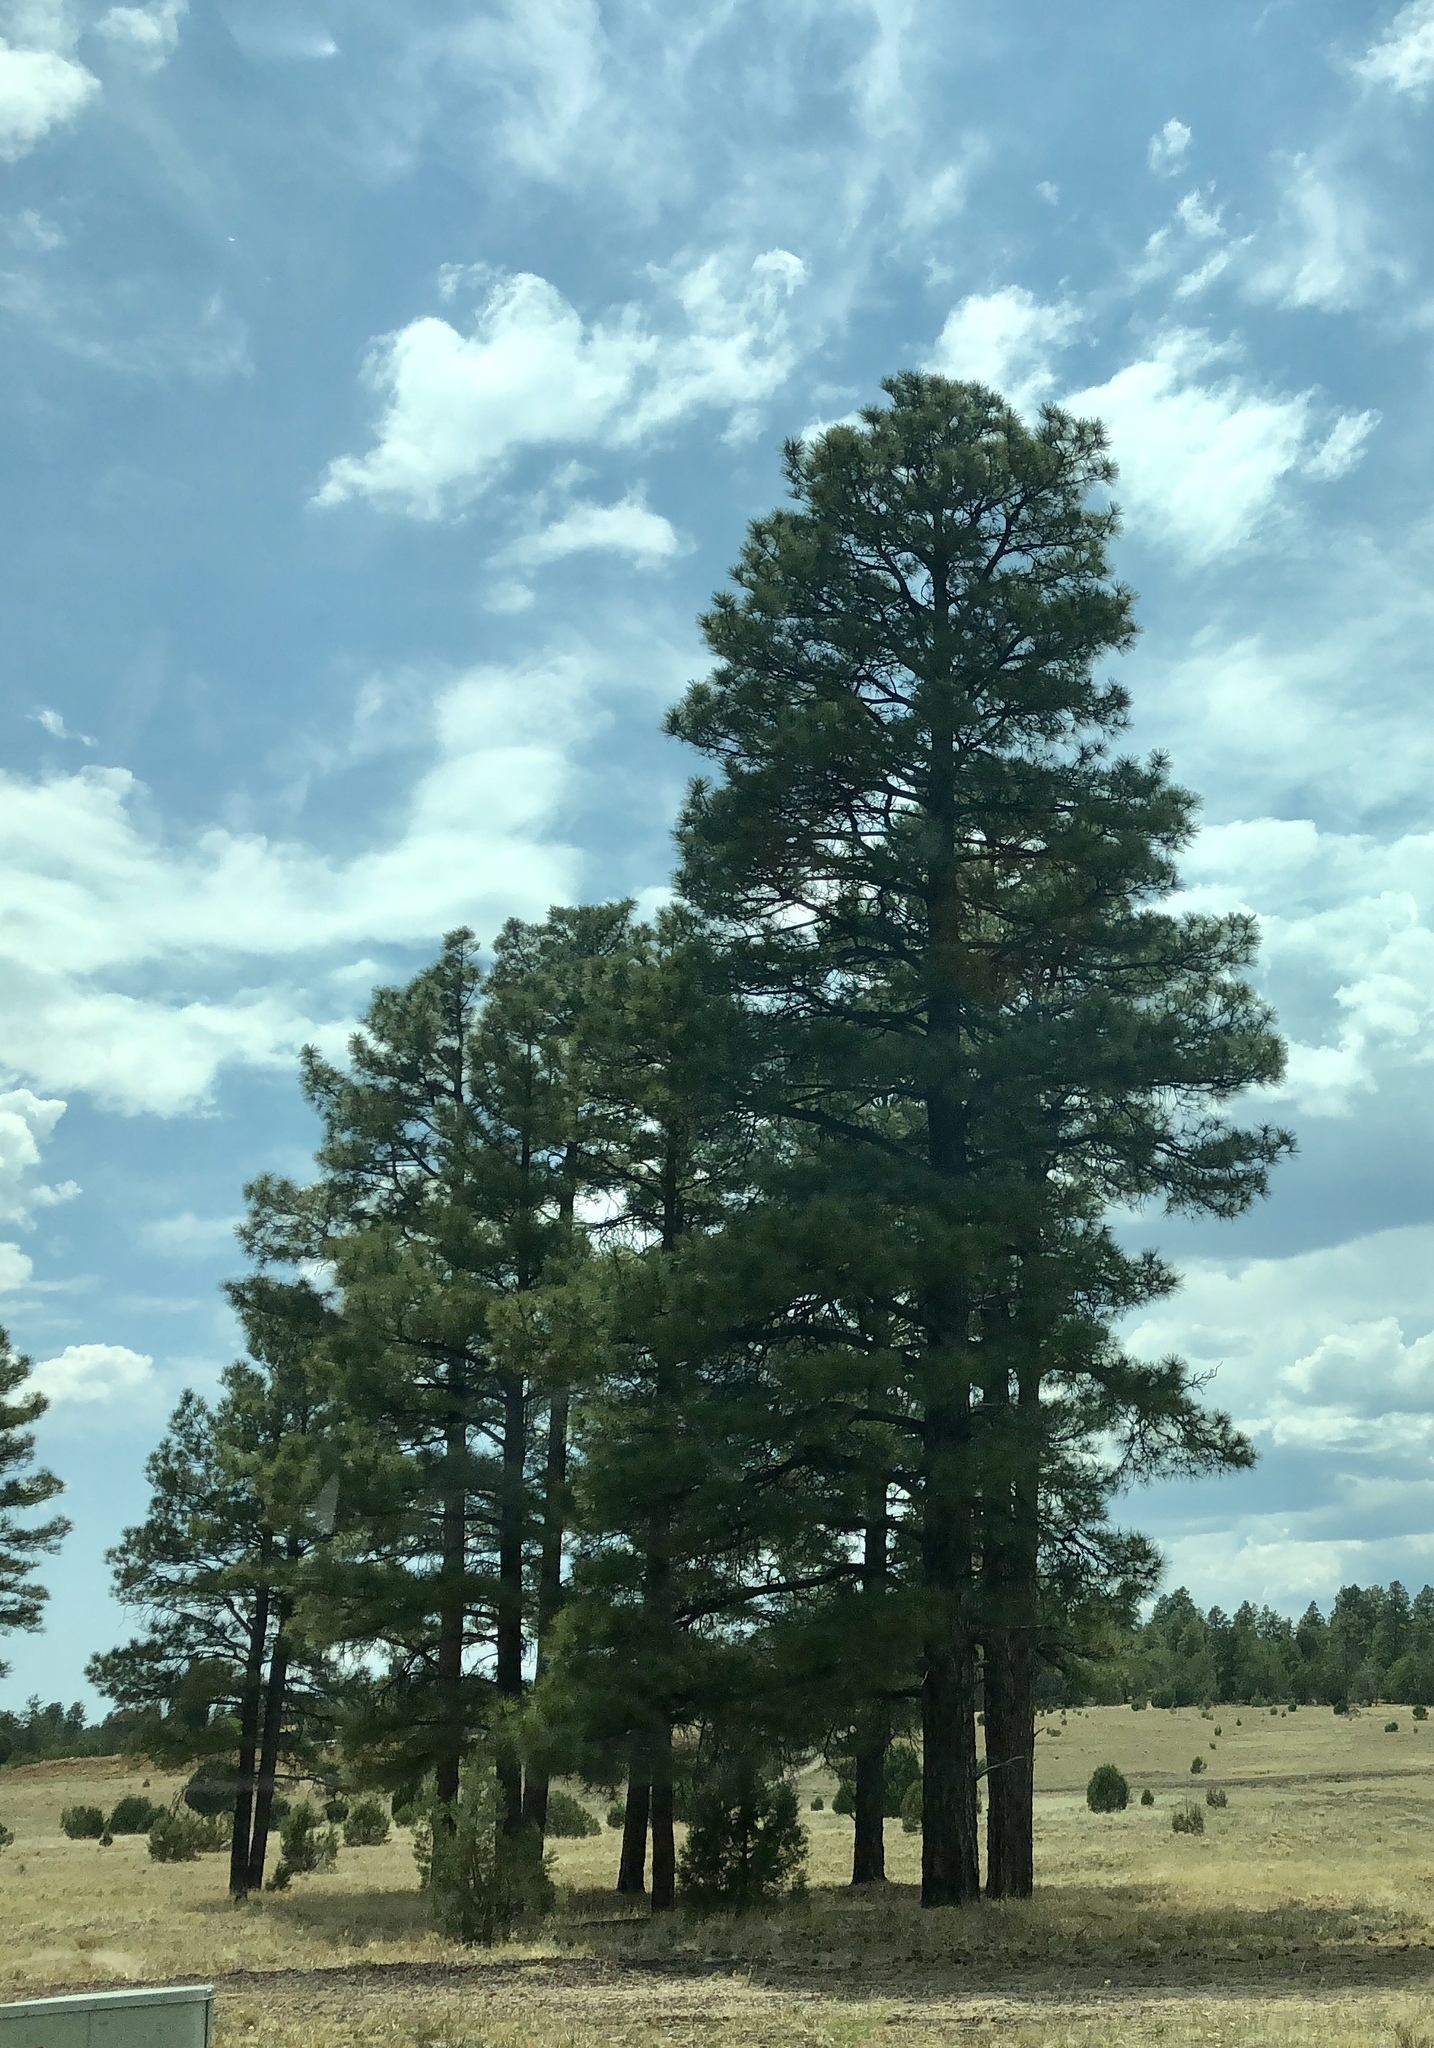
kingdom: Plantae
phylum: Tracheophyta
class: Pinopsida
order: Pinales
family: Pinaceae
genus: Pinus
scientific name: Pinus ponderosa
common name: Western yellow-pine
